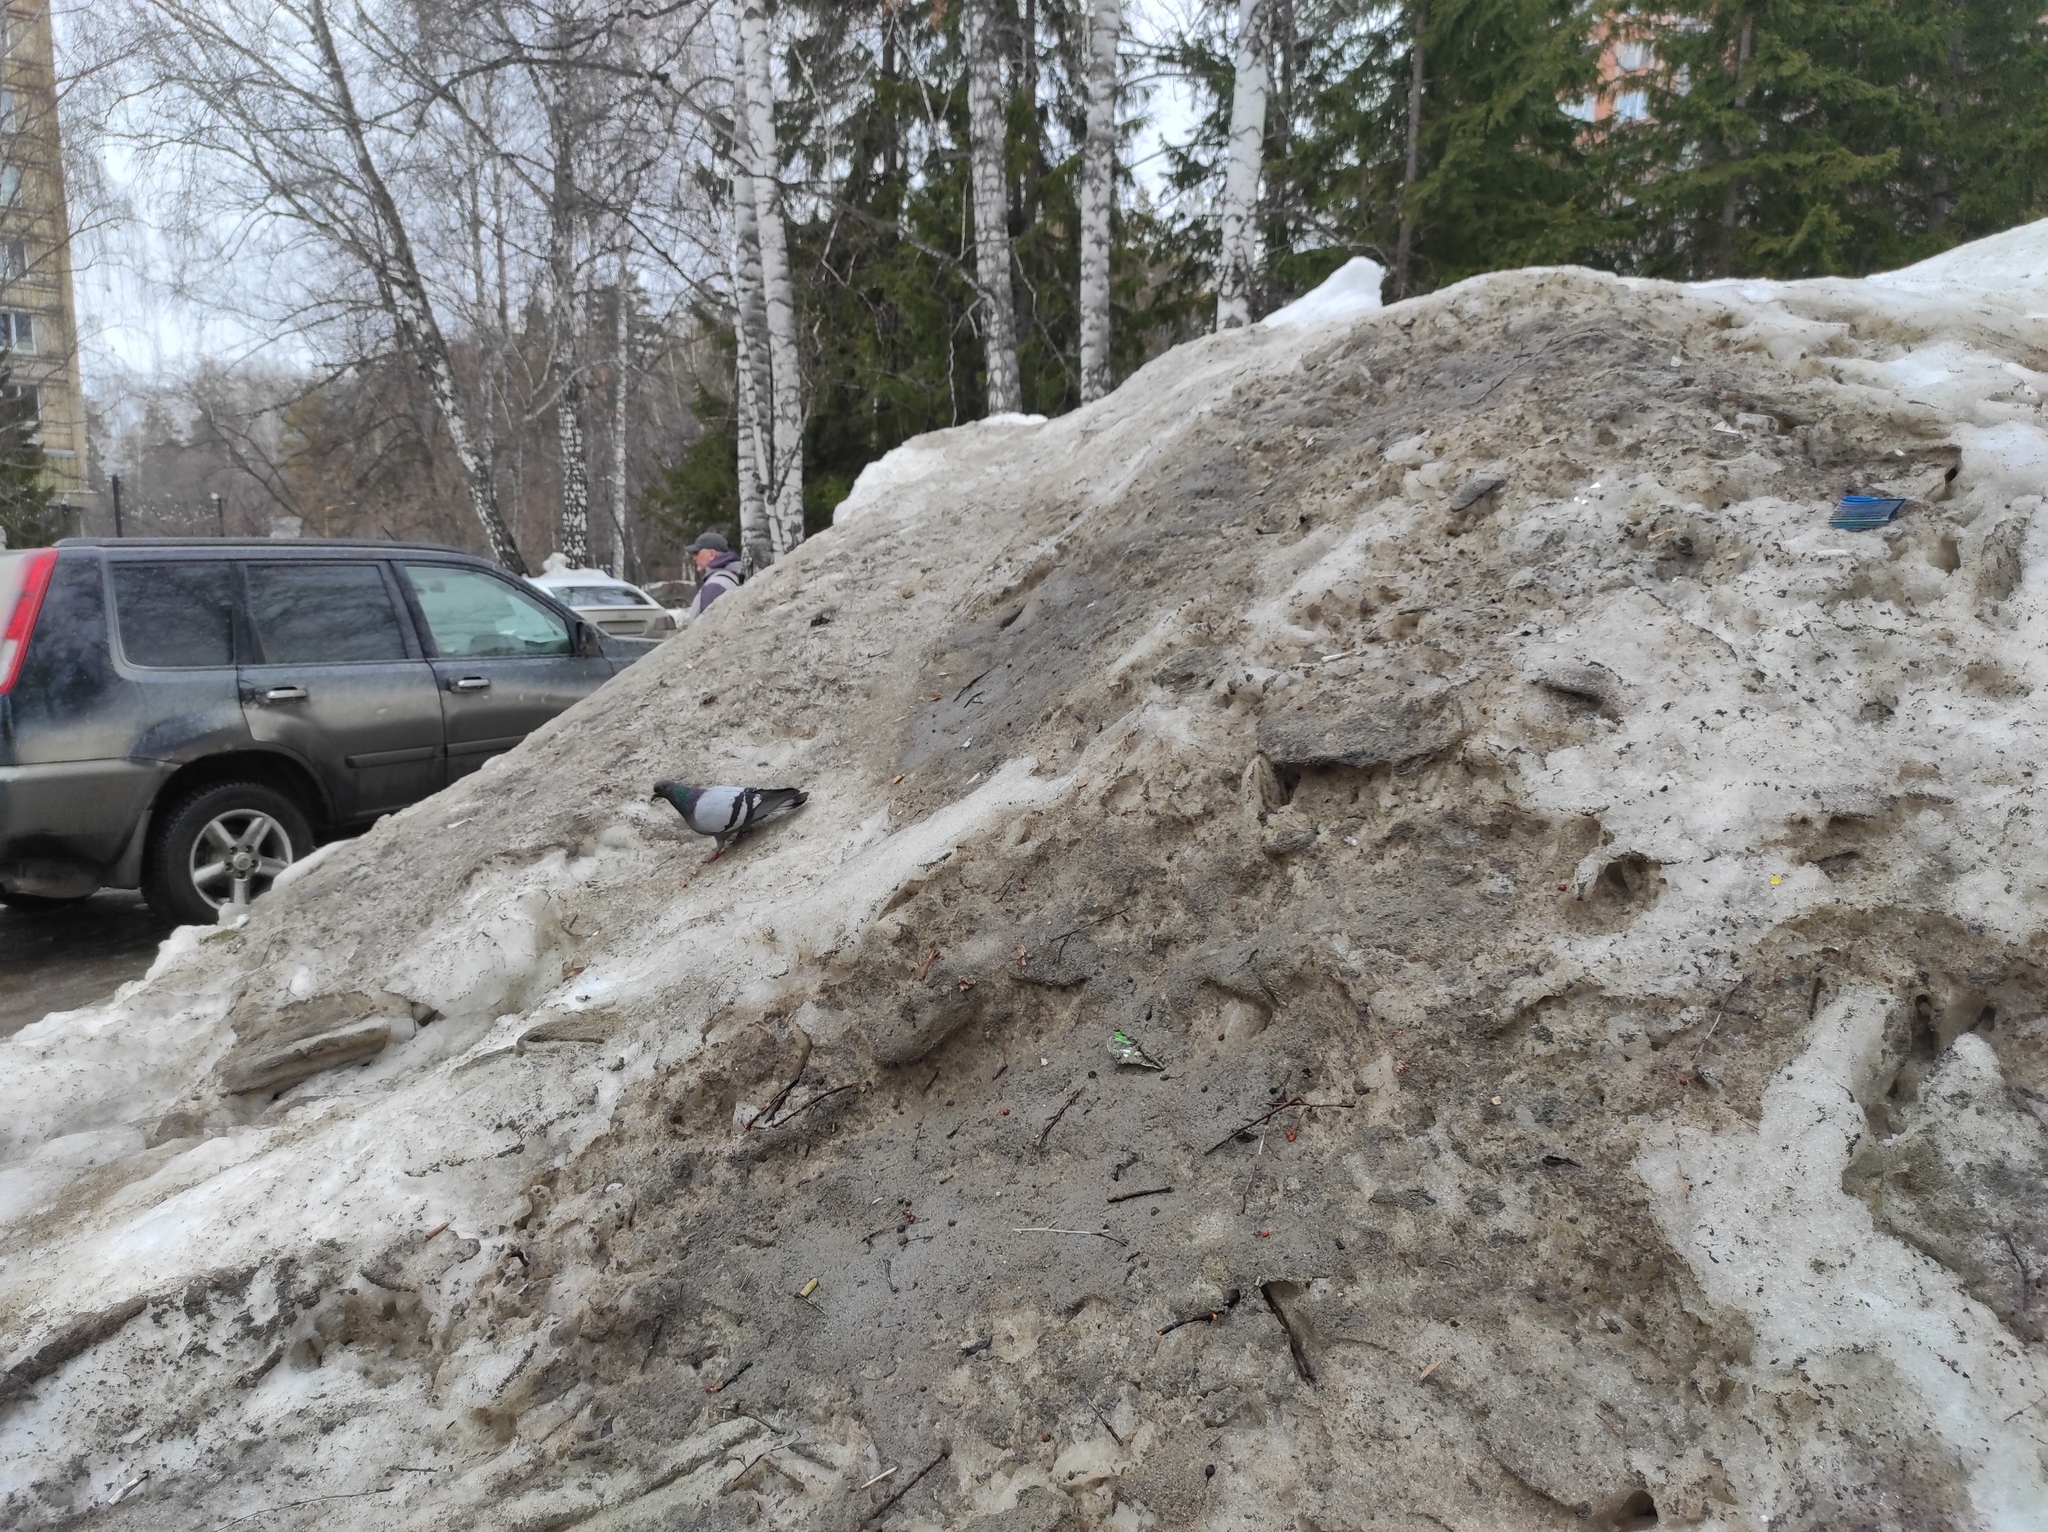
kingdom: Animalia
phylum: Chordata
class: Aves
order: Columbiformes
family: Columbidae
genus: Columba
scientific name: Columba livia
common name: Rock pigeon
